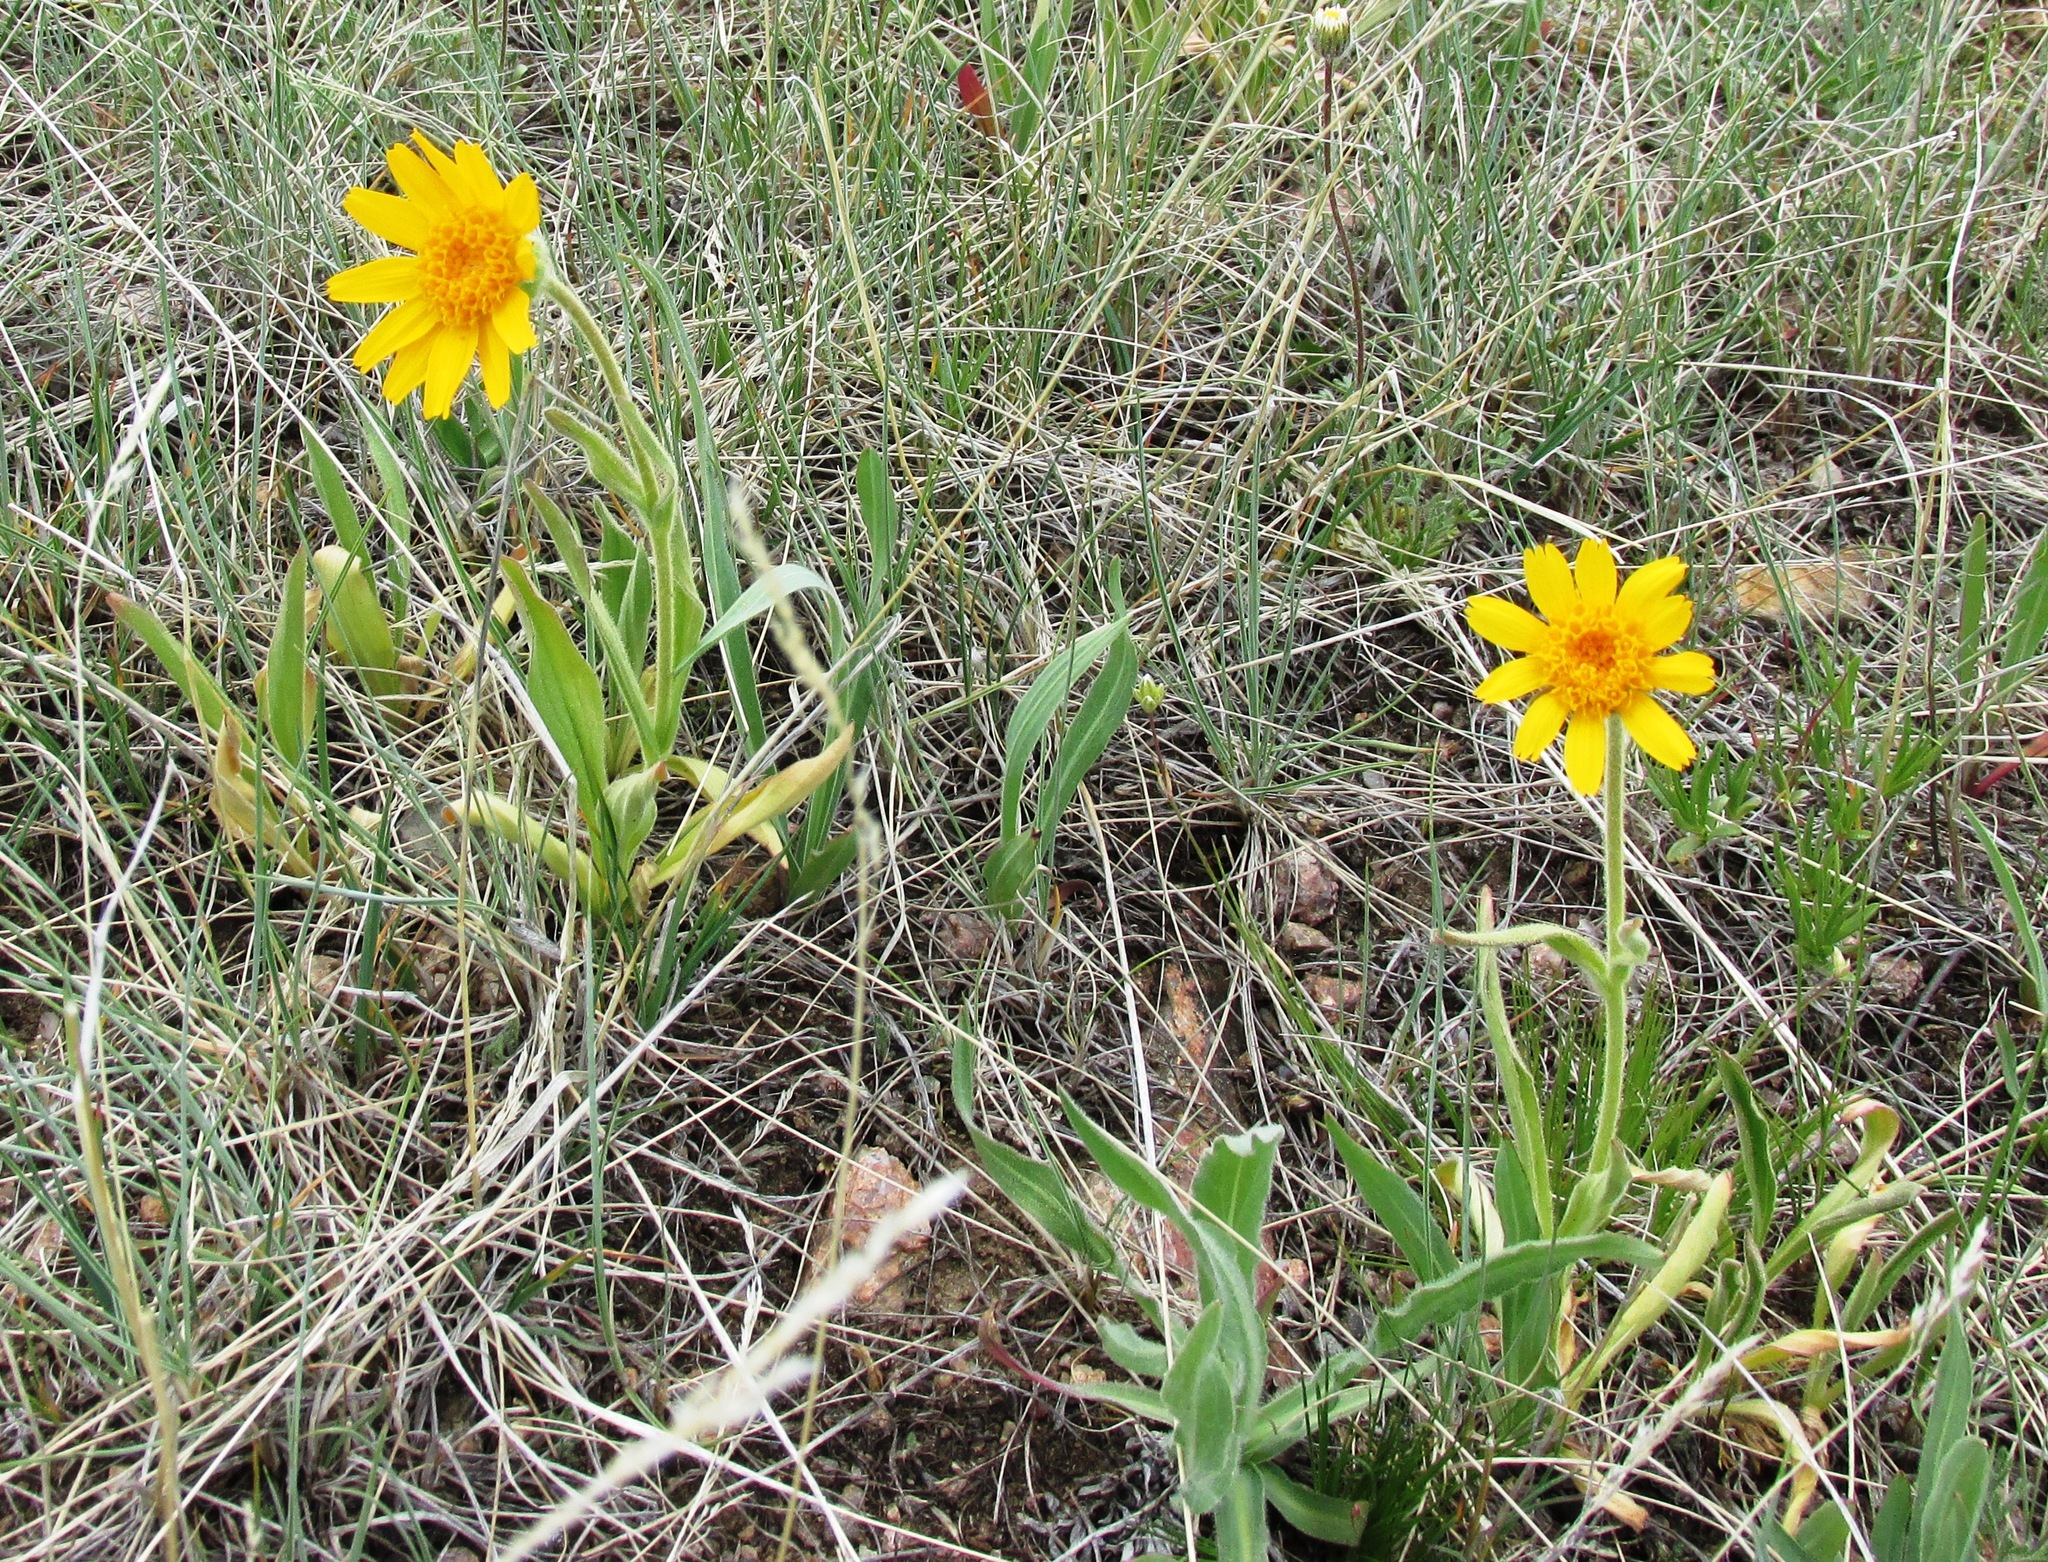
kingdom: Plantae
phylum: Tracheophyta
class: Magnoliopsida
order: Asterales
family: Asteraceae
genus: Arnica
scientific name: Arnica sororia
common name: Twin arnica
